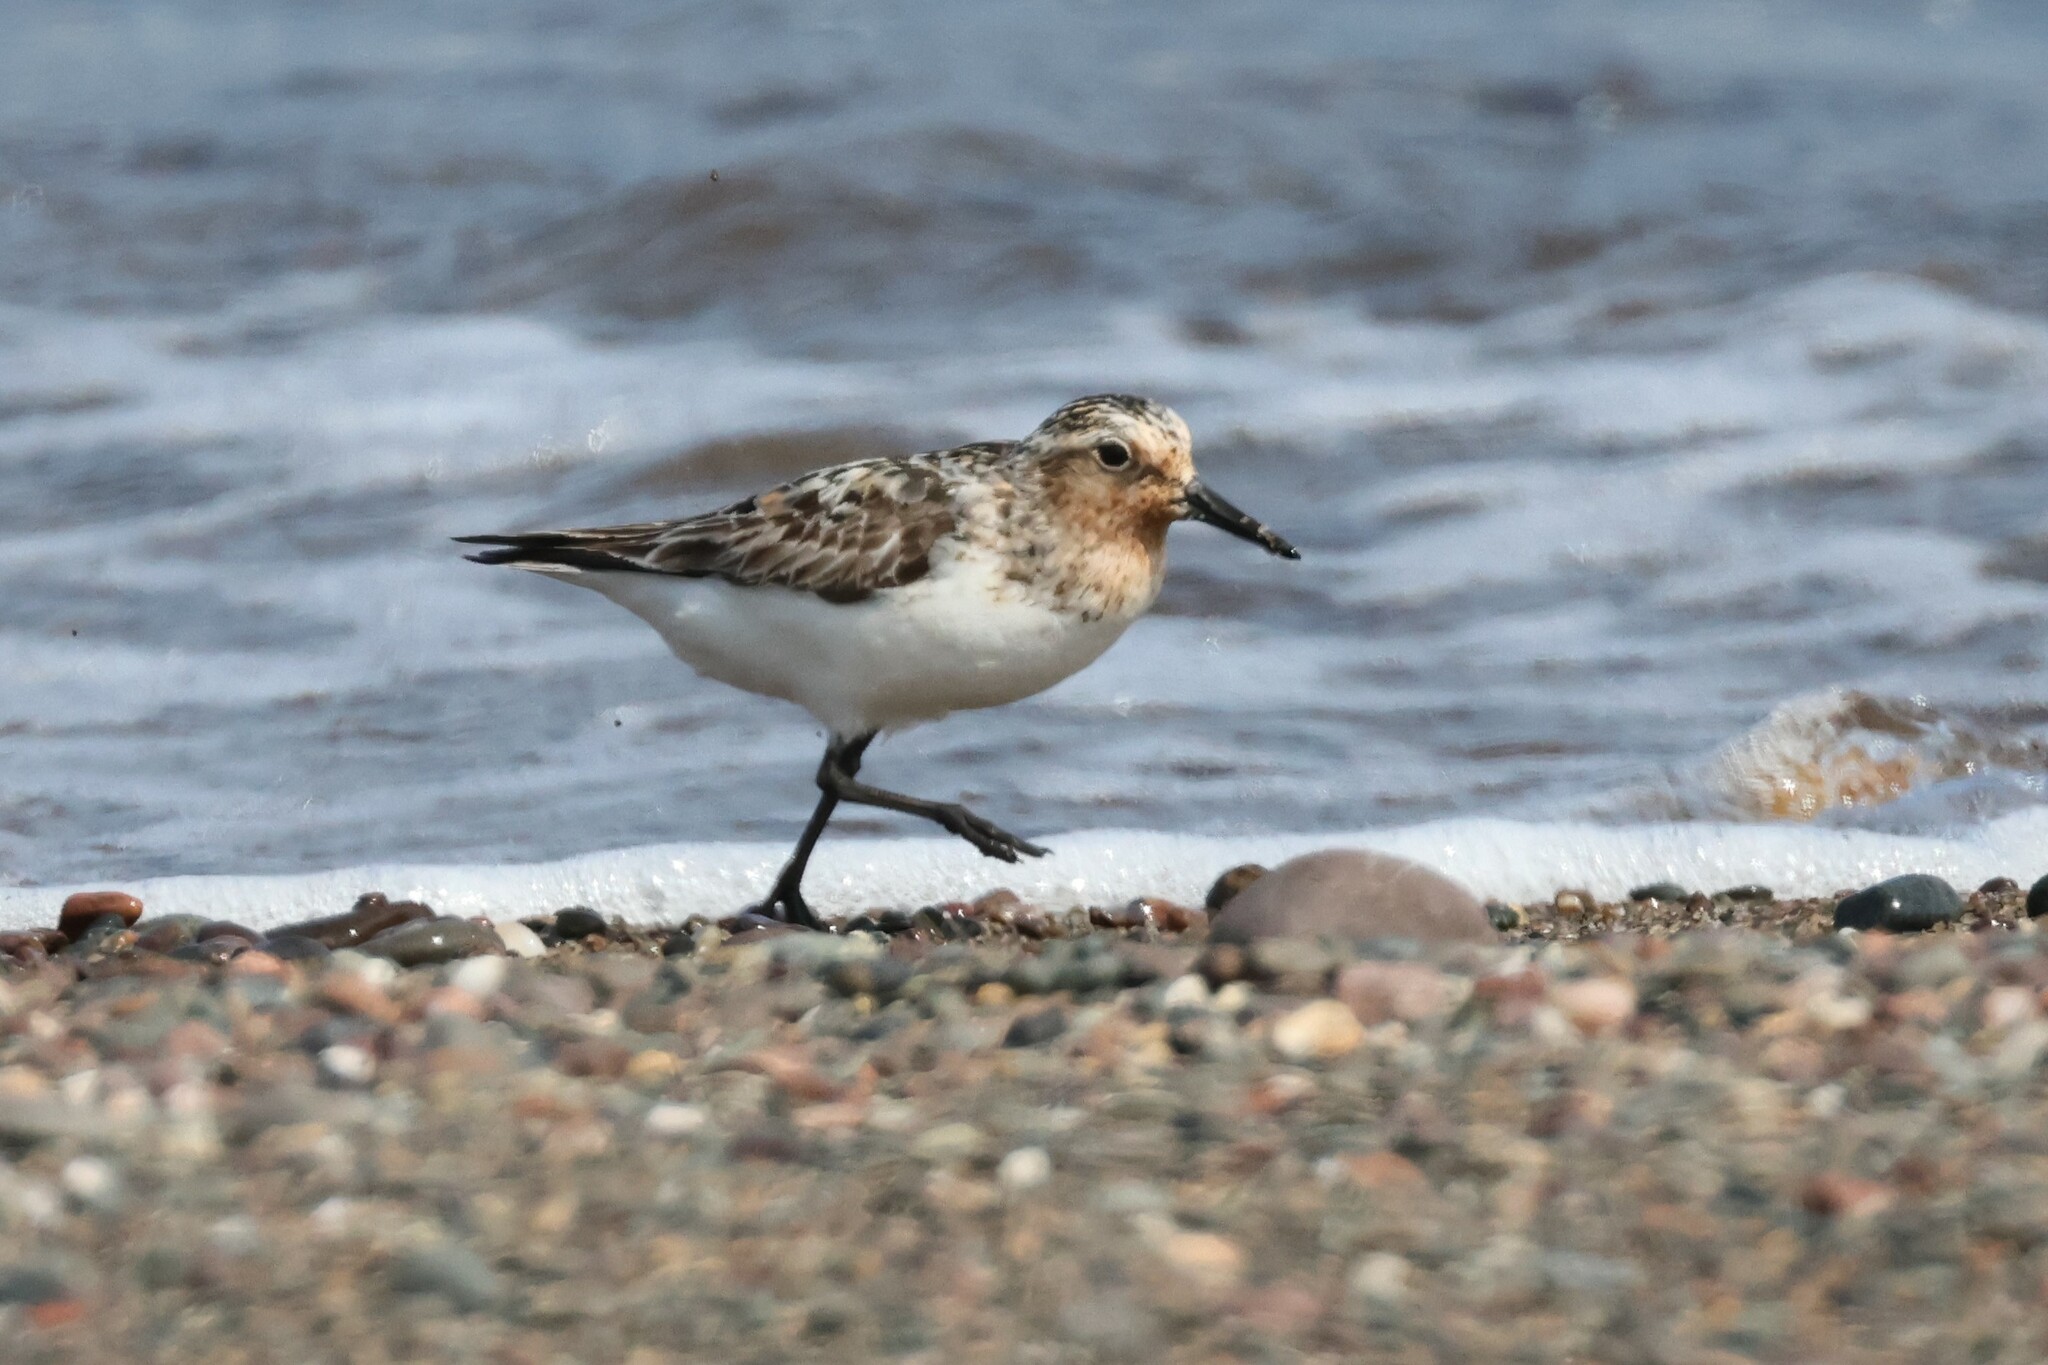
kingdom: Animalia
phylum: Chordata
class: Aves
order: Charadriiformes
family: Scolopacidae
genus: Calidris
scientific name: Calidris alba
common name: Sanderling
